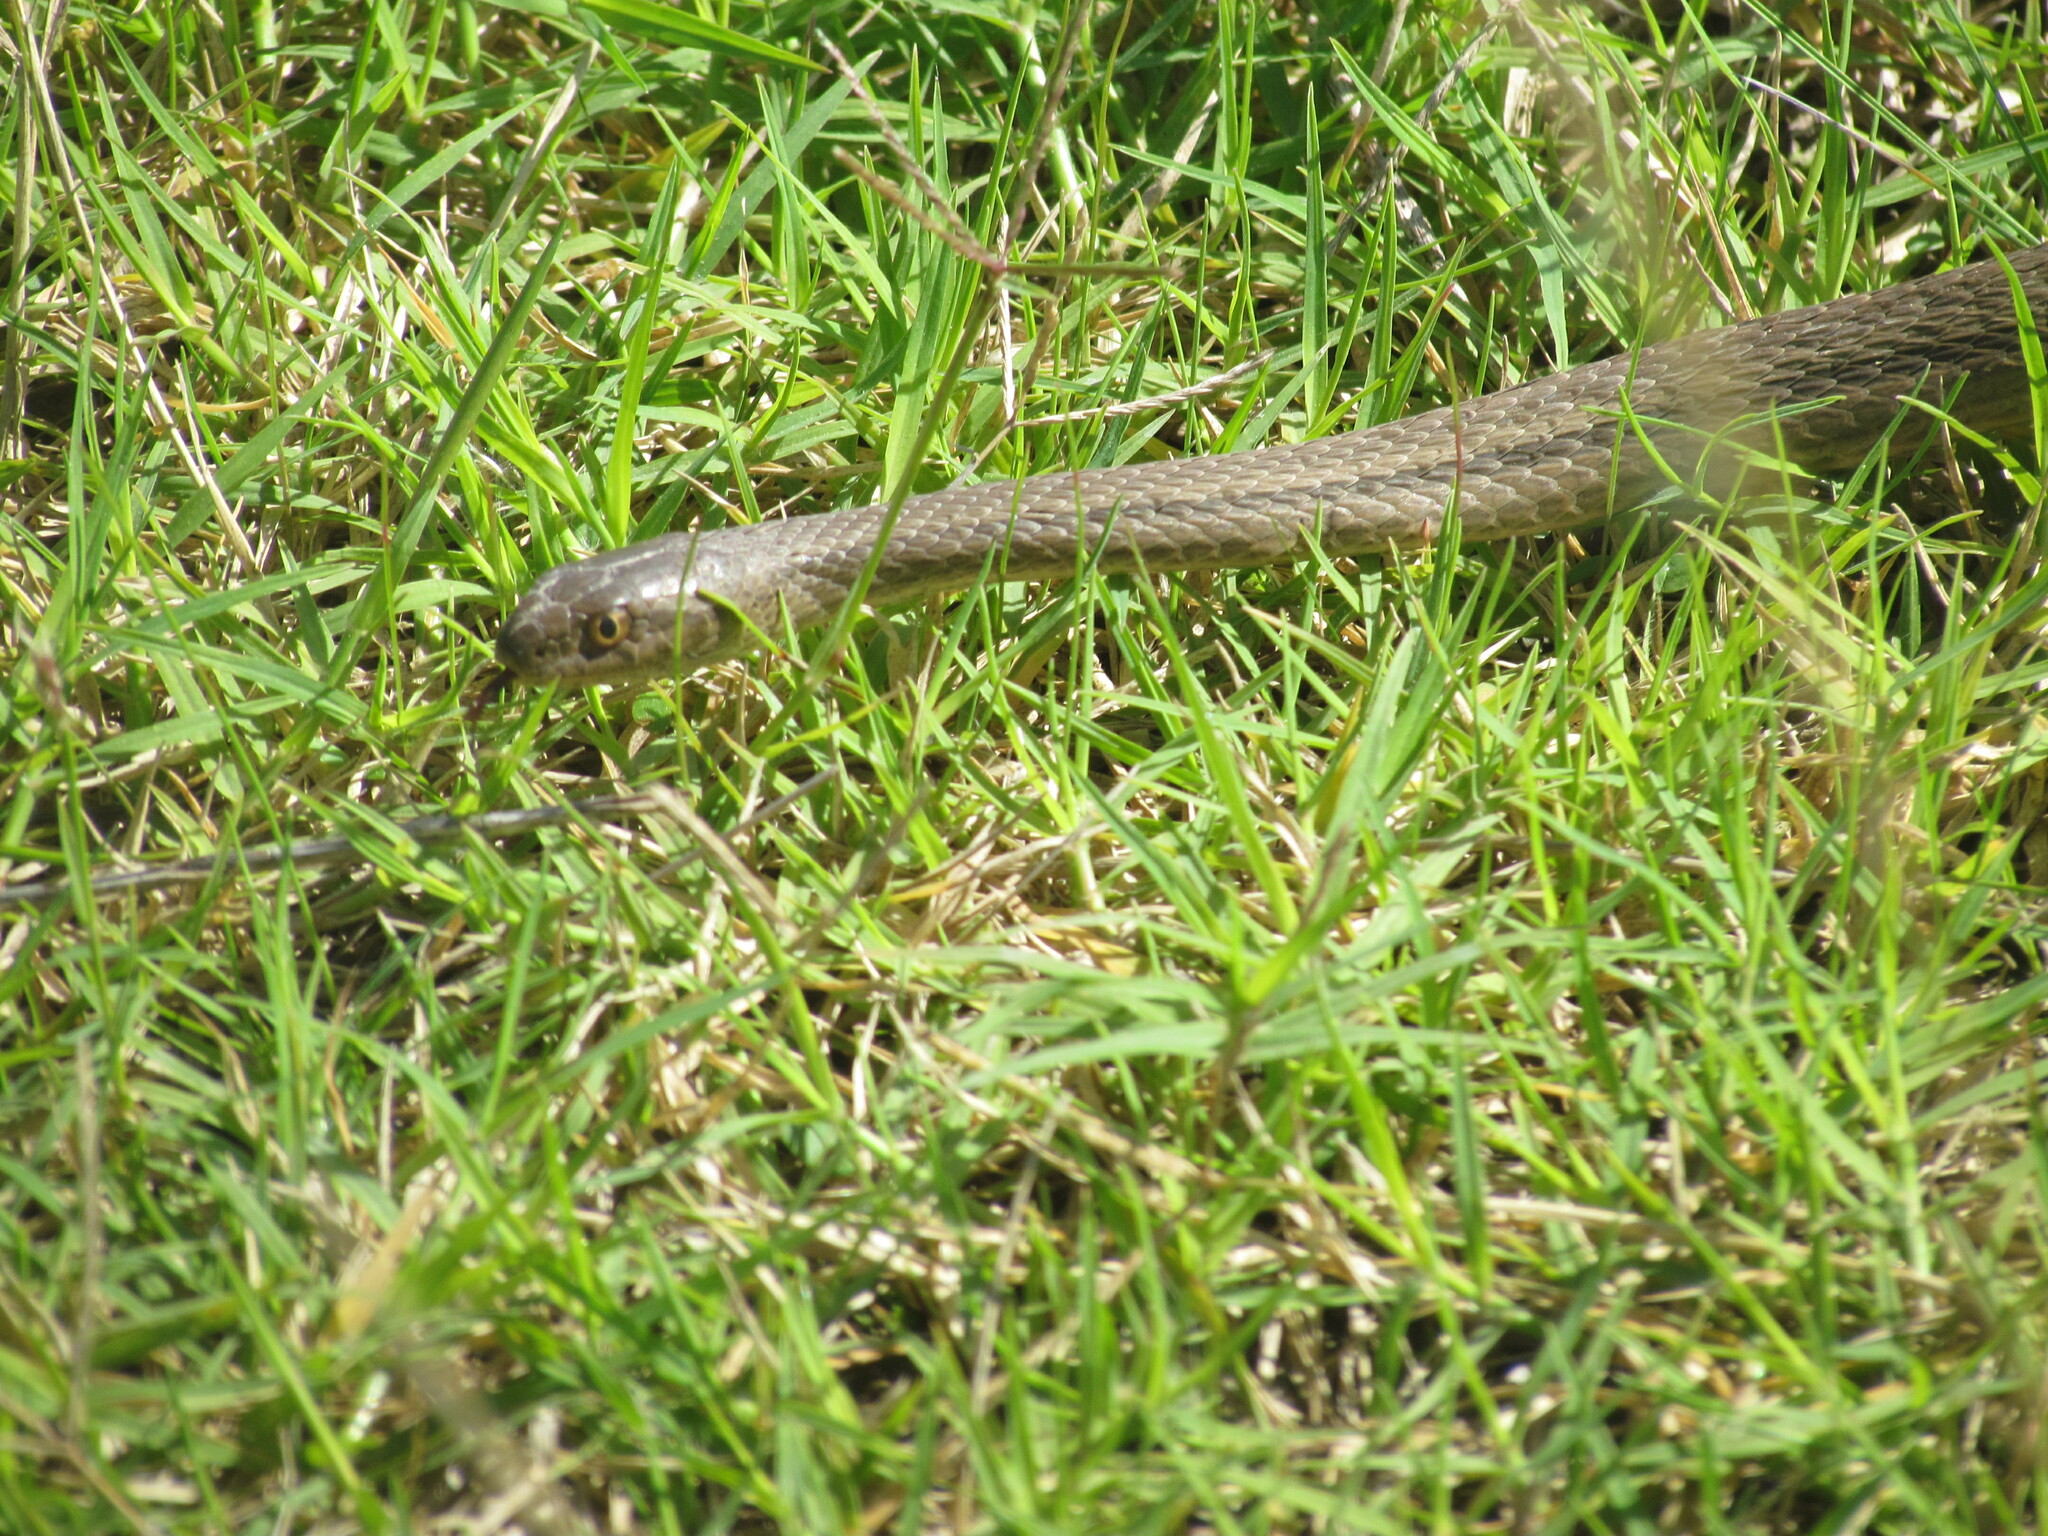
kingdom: Animalia
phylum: Chordata
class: Squamata
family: Colubridae
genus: Dryophylax
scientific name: Dryophylax
